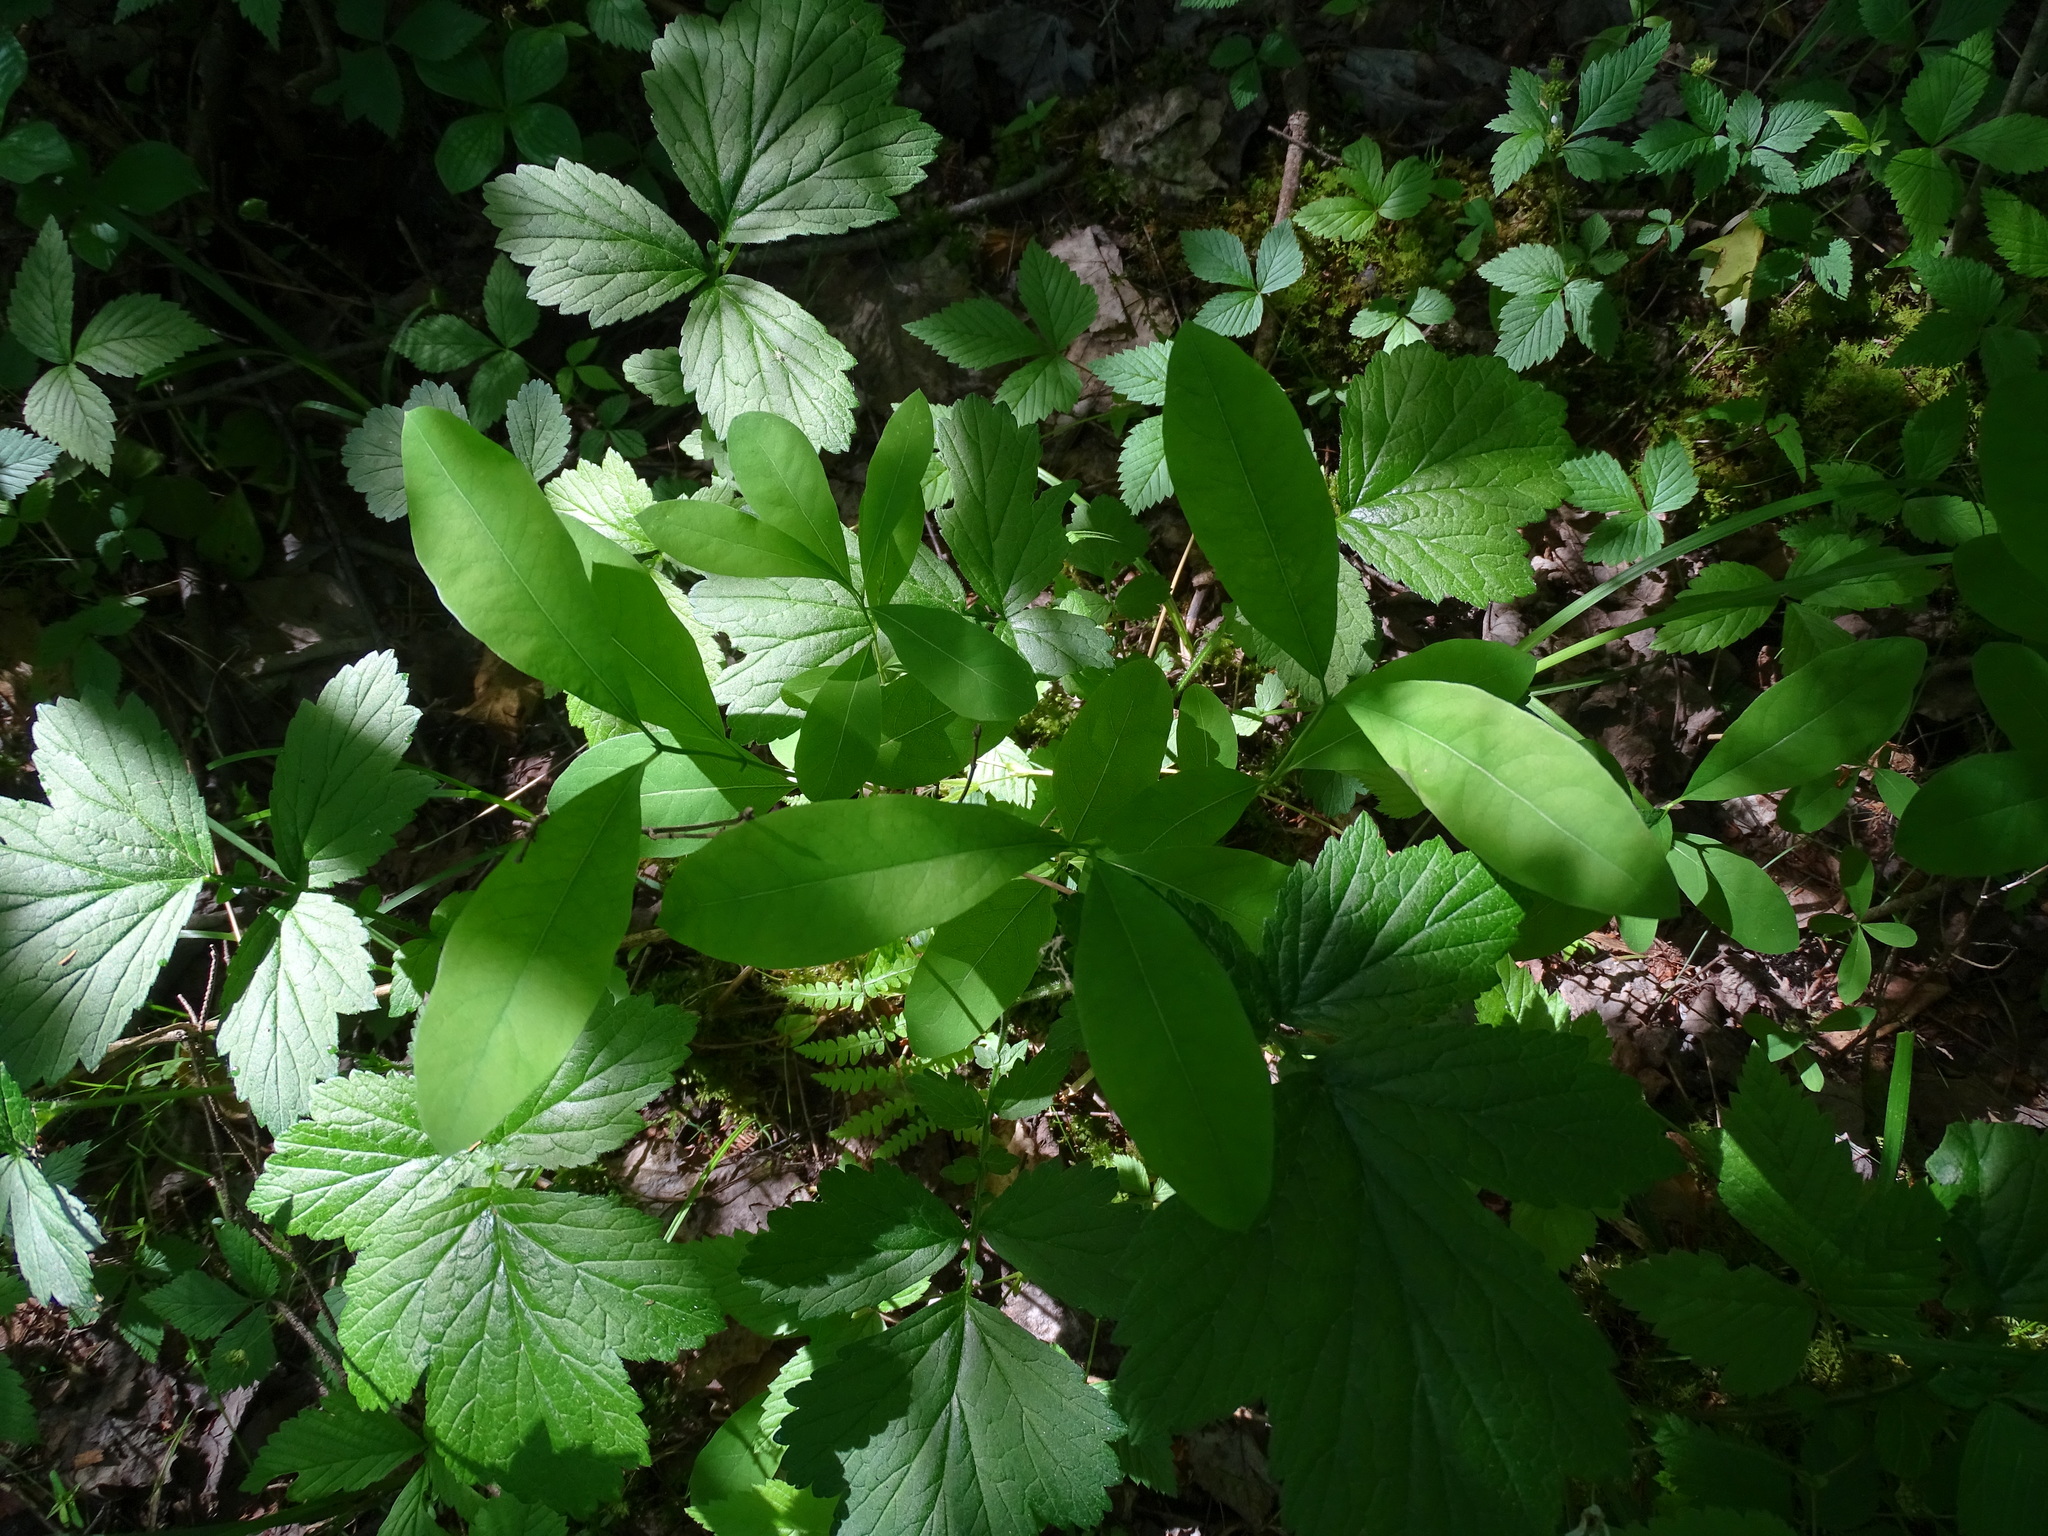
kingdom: Plantae
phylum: Tracheophyta
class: Magnoliopsida
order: Dipsacales
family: Caprifoliaceae
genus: Lonicera
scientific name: Lonicera oblongifolia
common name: Swamp fly honeysuckle
